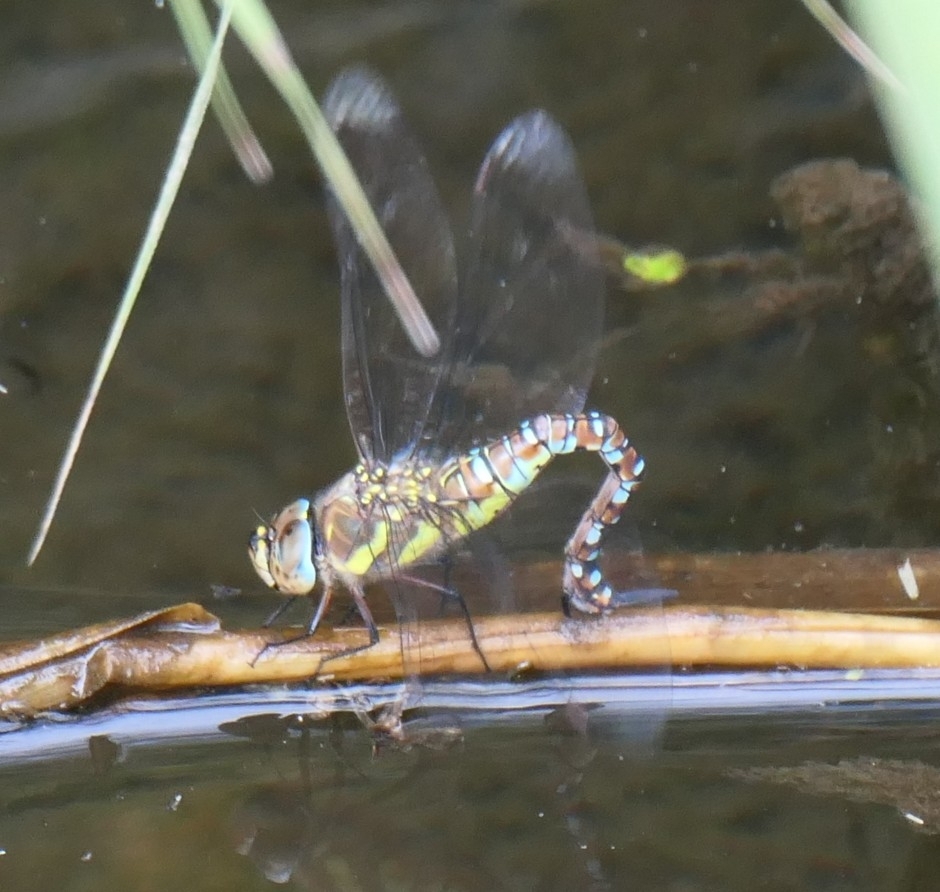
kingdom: Animalia
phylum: Arthropoda
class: Insecta
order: Odonata
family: Aeshnidae
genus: Aeshna
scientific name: Aeshna mixta
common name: Migrant hawker
